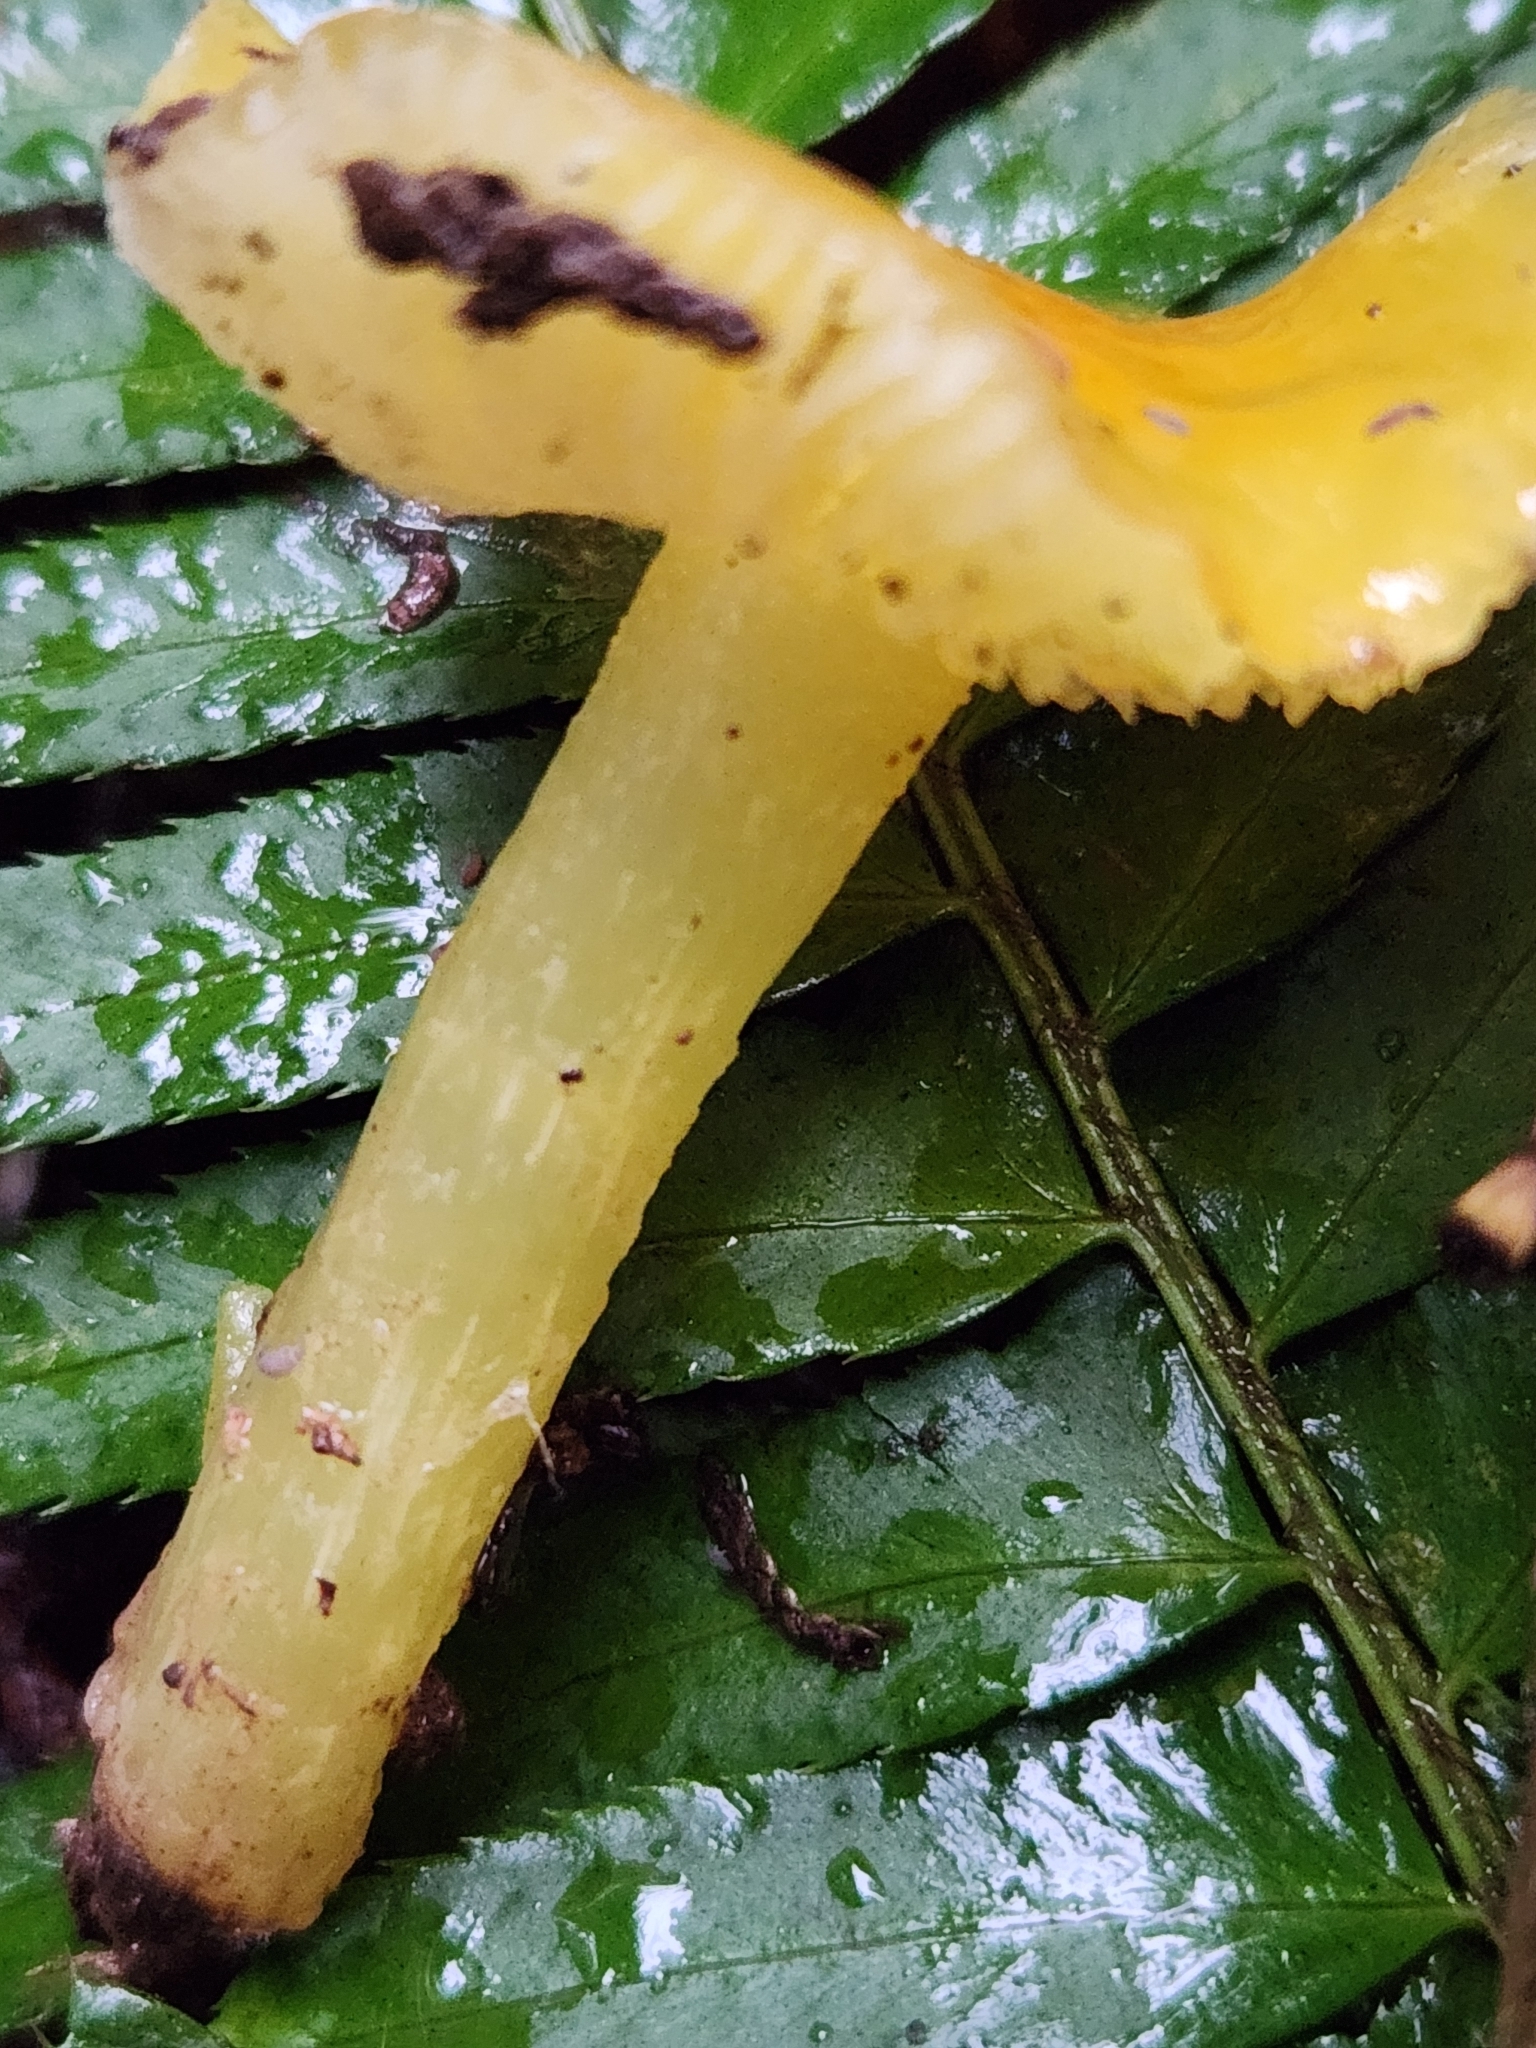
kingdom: Fungi
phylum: Basidiomycota
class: Agaricomycetes
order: Agaricales
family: Hygrophoraceae
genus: Hygrocybe
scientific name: Hygrocybe flavescens
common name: Golden waxy cap
